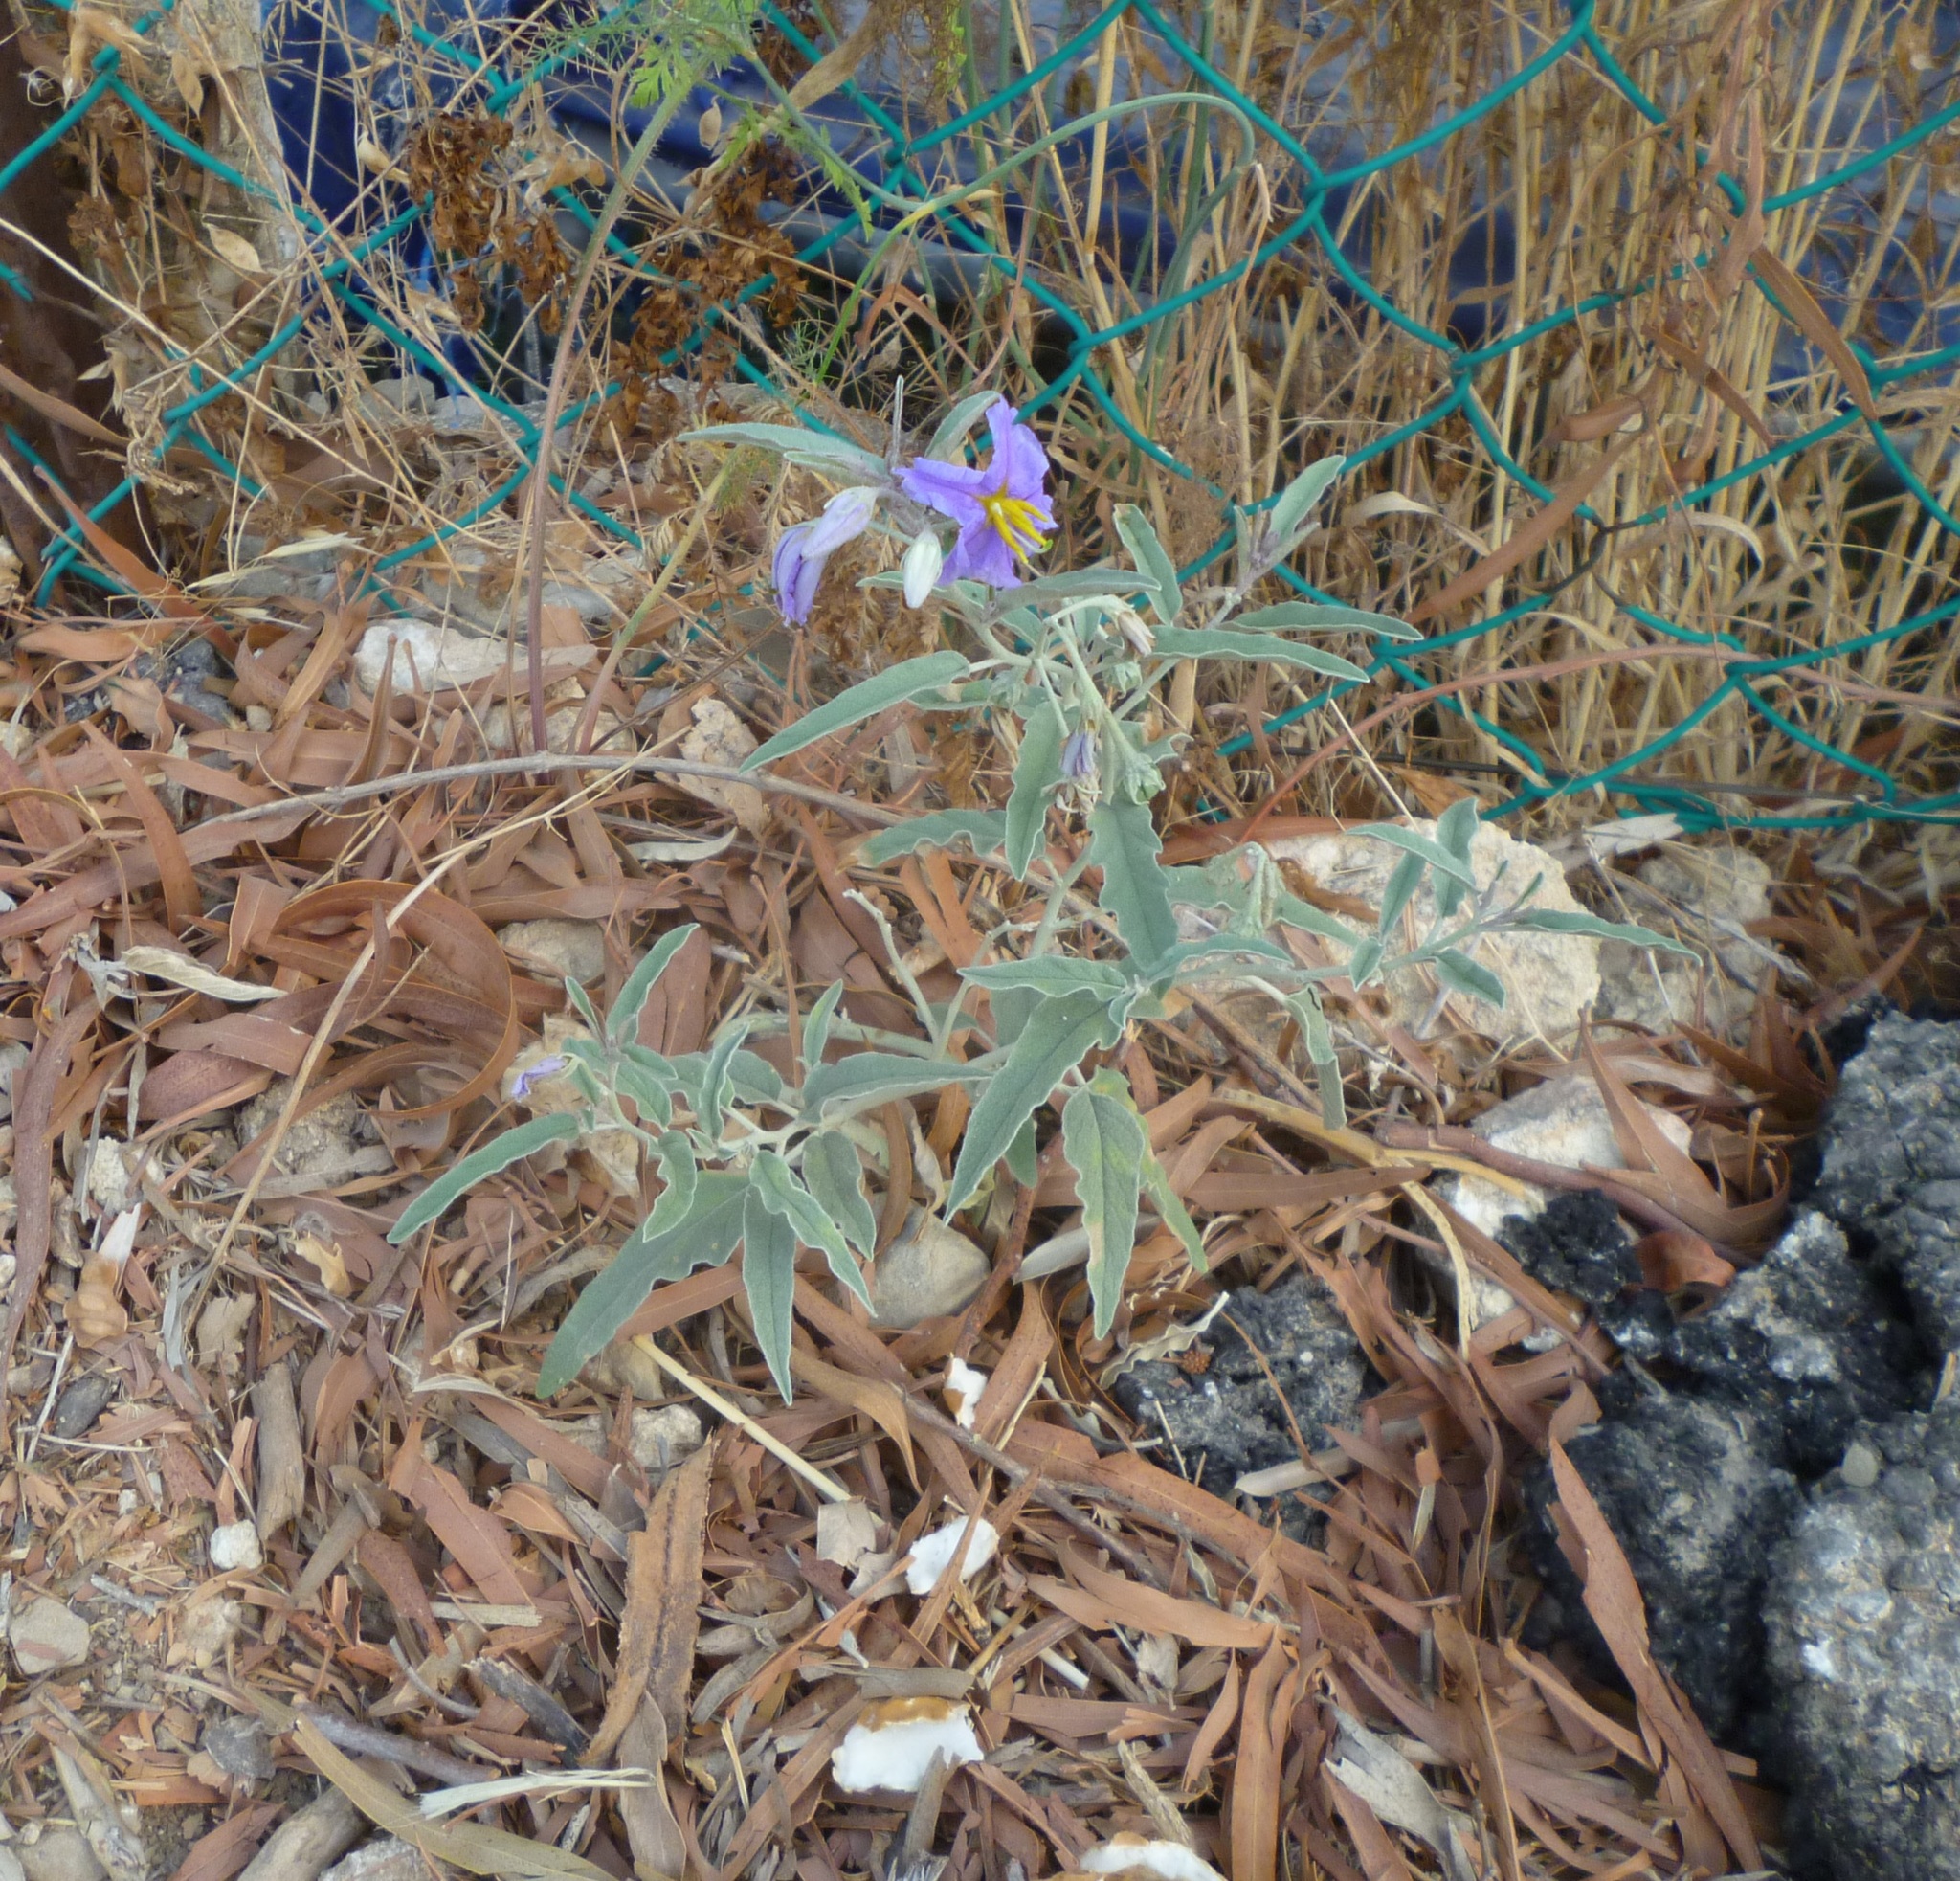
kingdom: Plantae
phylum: Tracheophyta
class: Magnoliopsida
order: Solanales
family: Solanaceae
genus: Solanum
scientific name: Solanum elaeagnifolium
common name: Silverleaf nightshade
